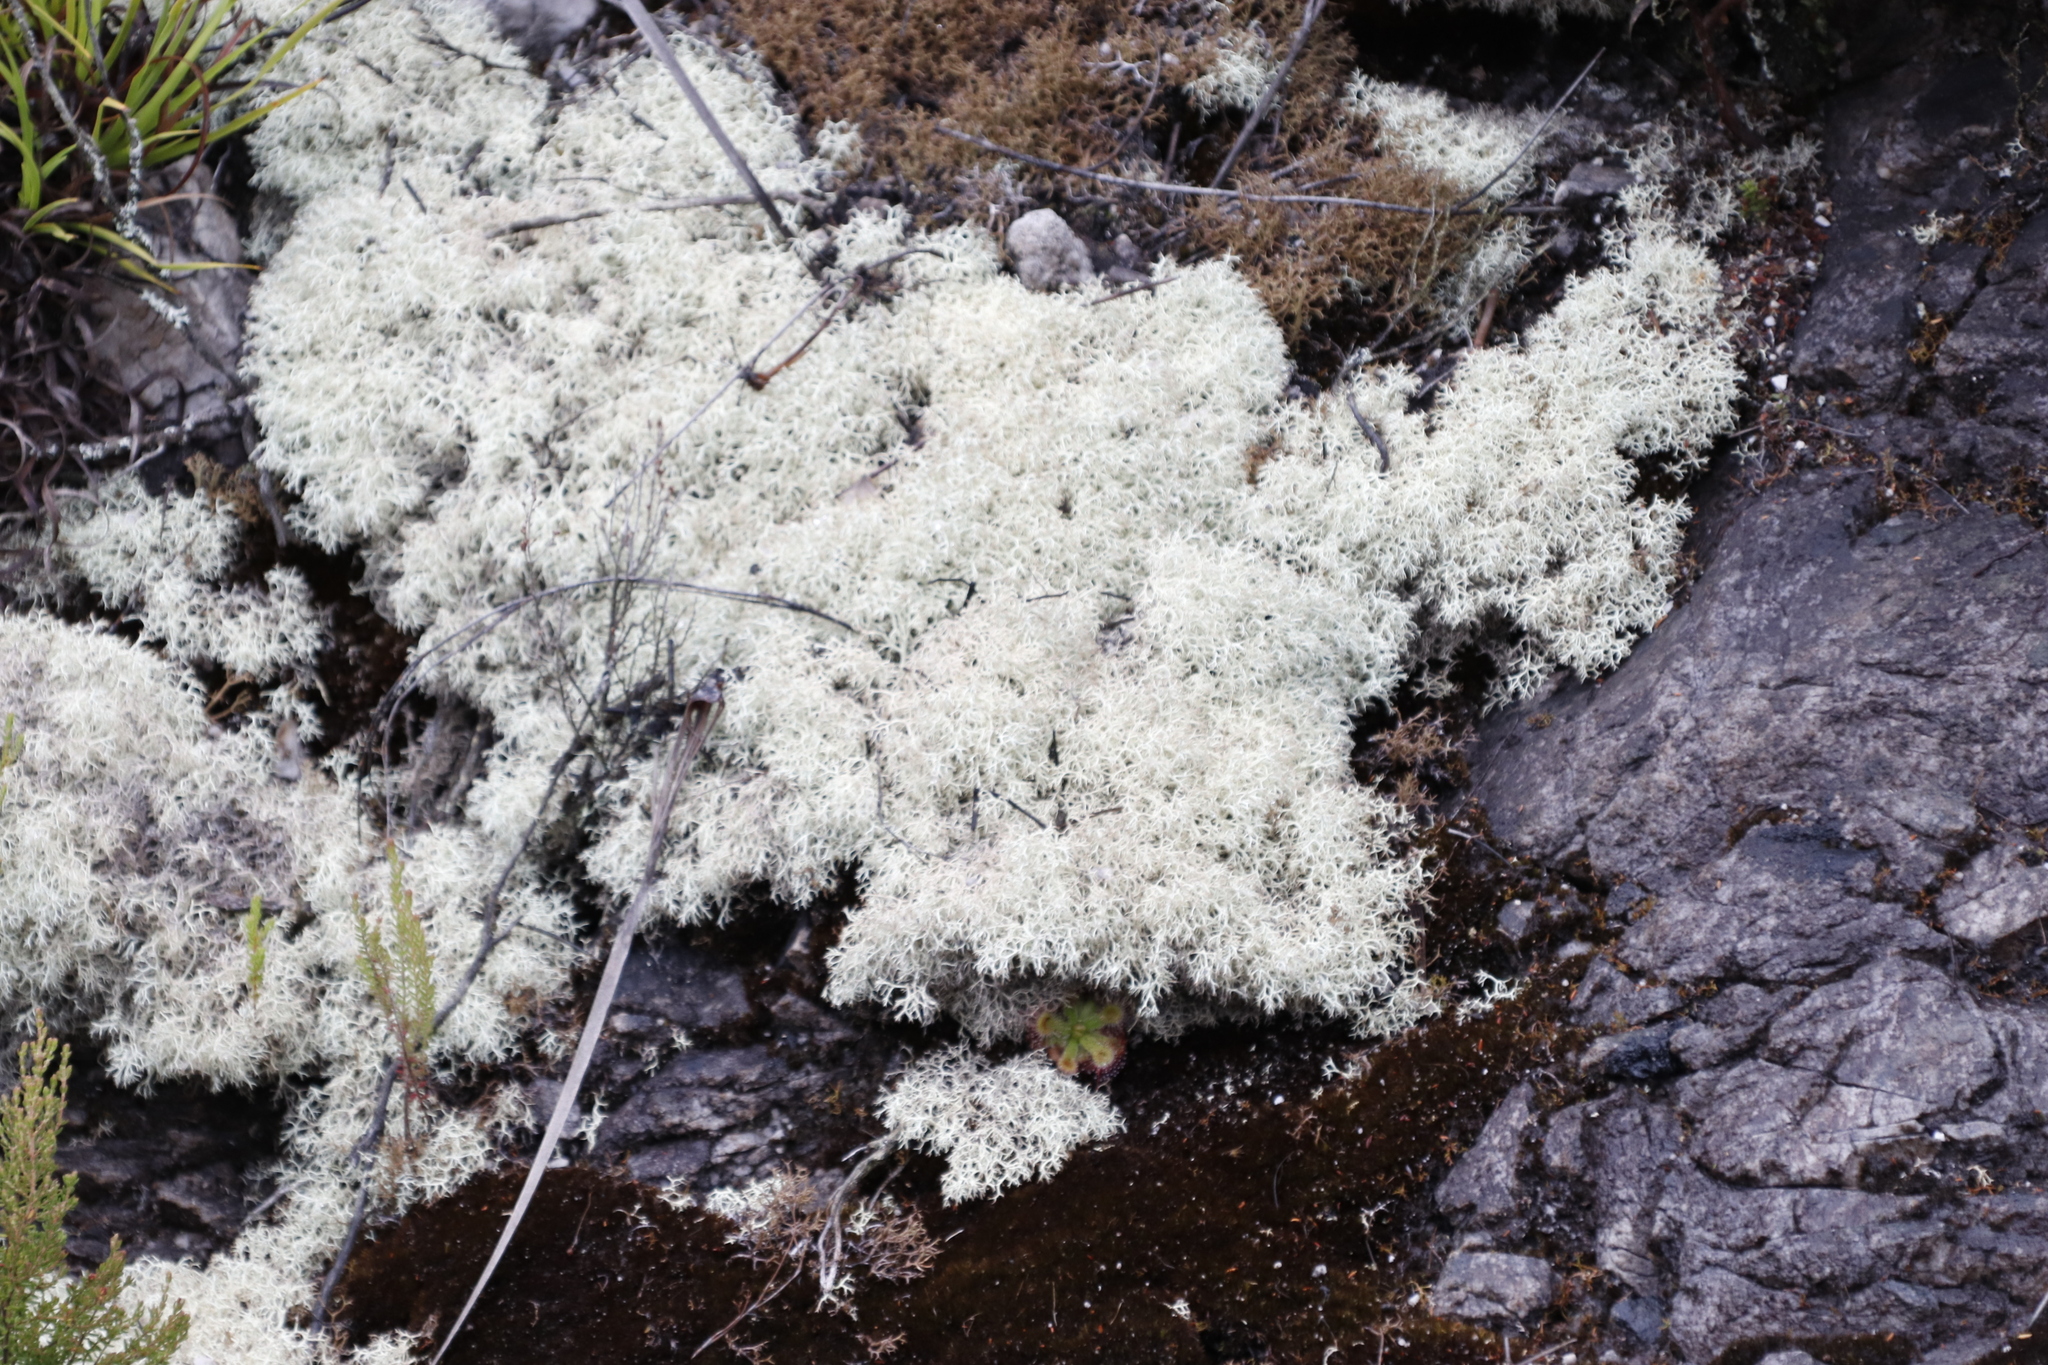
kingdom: Fungi
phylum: Ascomycota
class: Lecanoromycetes
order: Lecanorales
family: Cladoniaceae
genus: Cladonia
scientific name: Cladonia confusa
